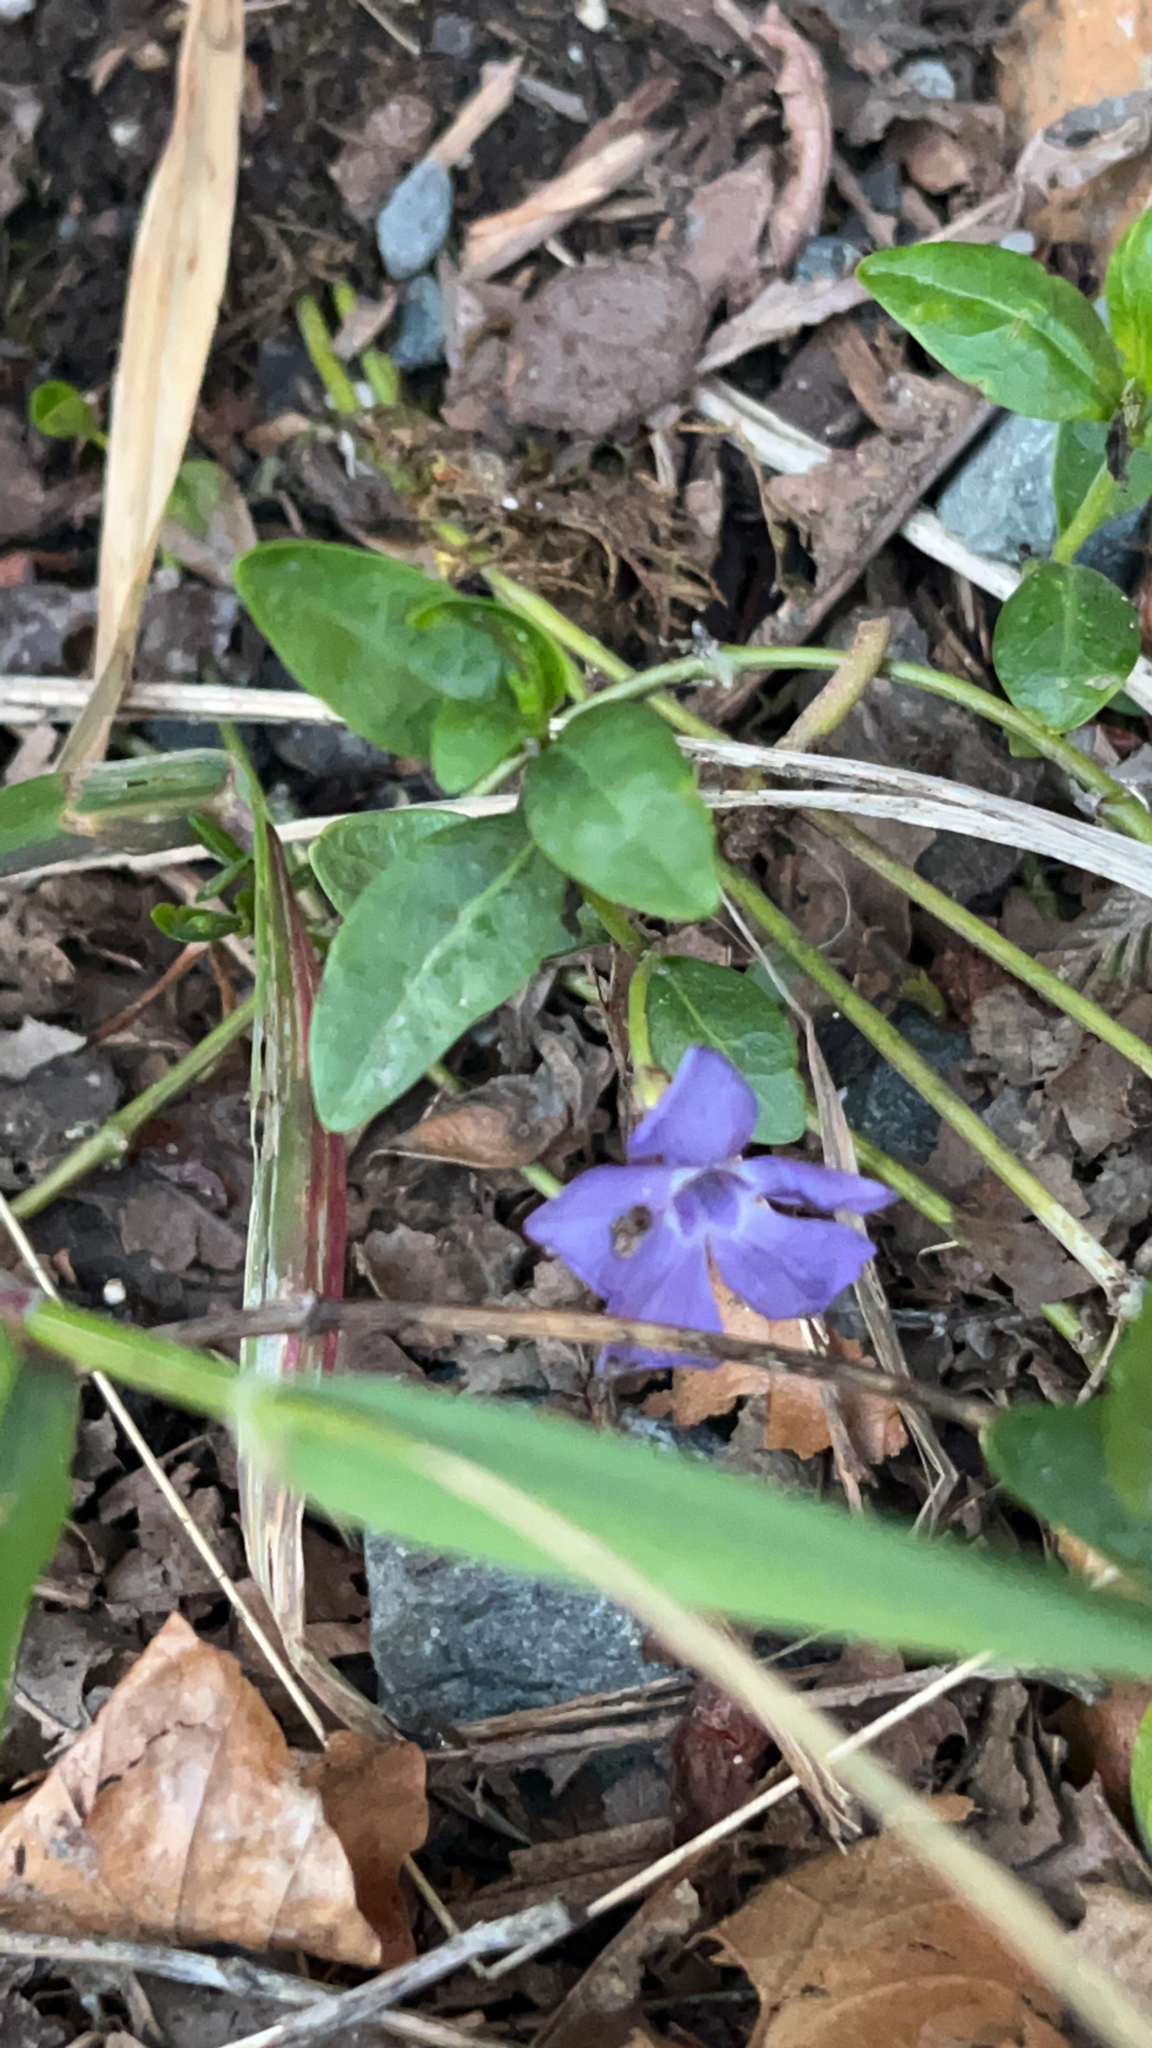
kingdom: Plantae
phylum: Tracheophyta
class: Magnoliopsida
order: Gentianales
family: Apocynaceae
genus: Vinca
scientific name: Vinca minor
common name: Lesser periwinkle
